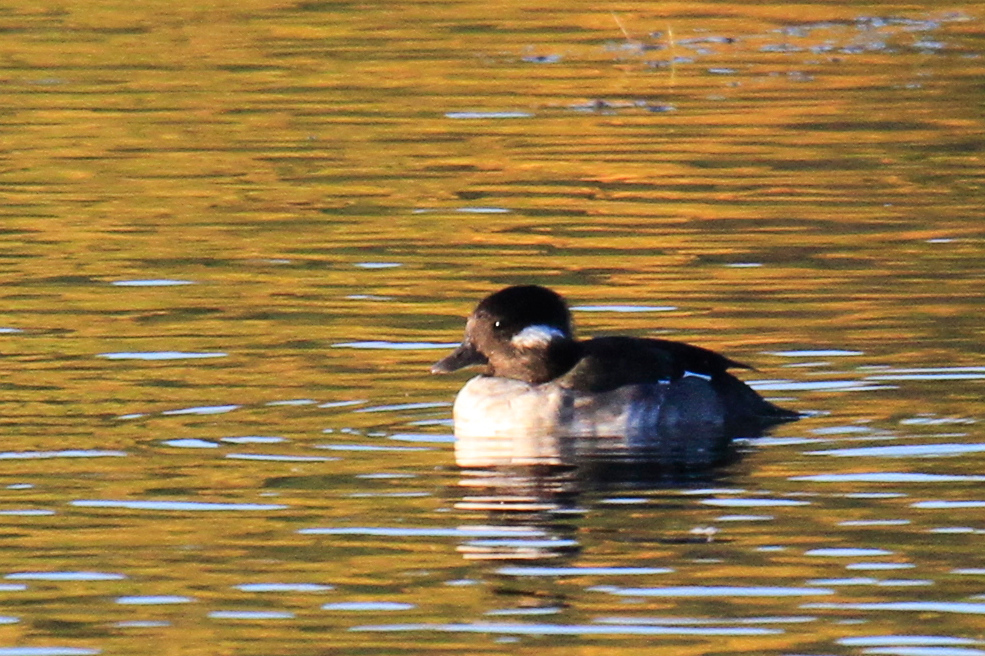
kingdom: Animalia
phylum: Chordata
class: Aves
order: Anseriformes
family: Anatidae
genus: Bucephala
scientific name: Bucephala albeola
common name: Bufflehead
